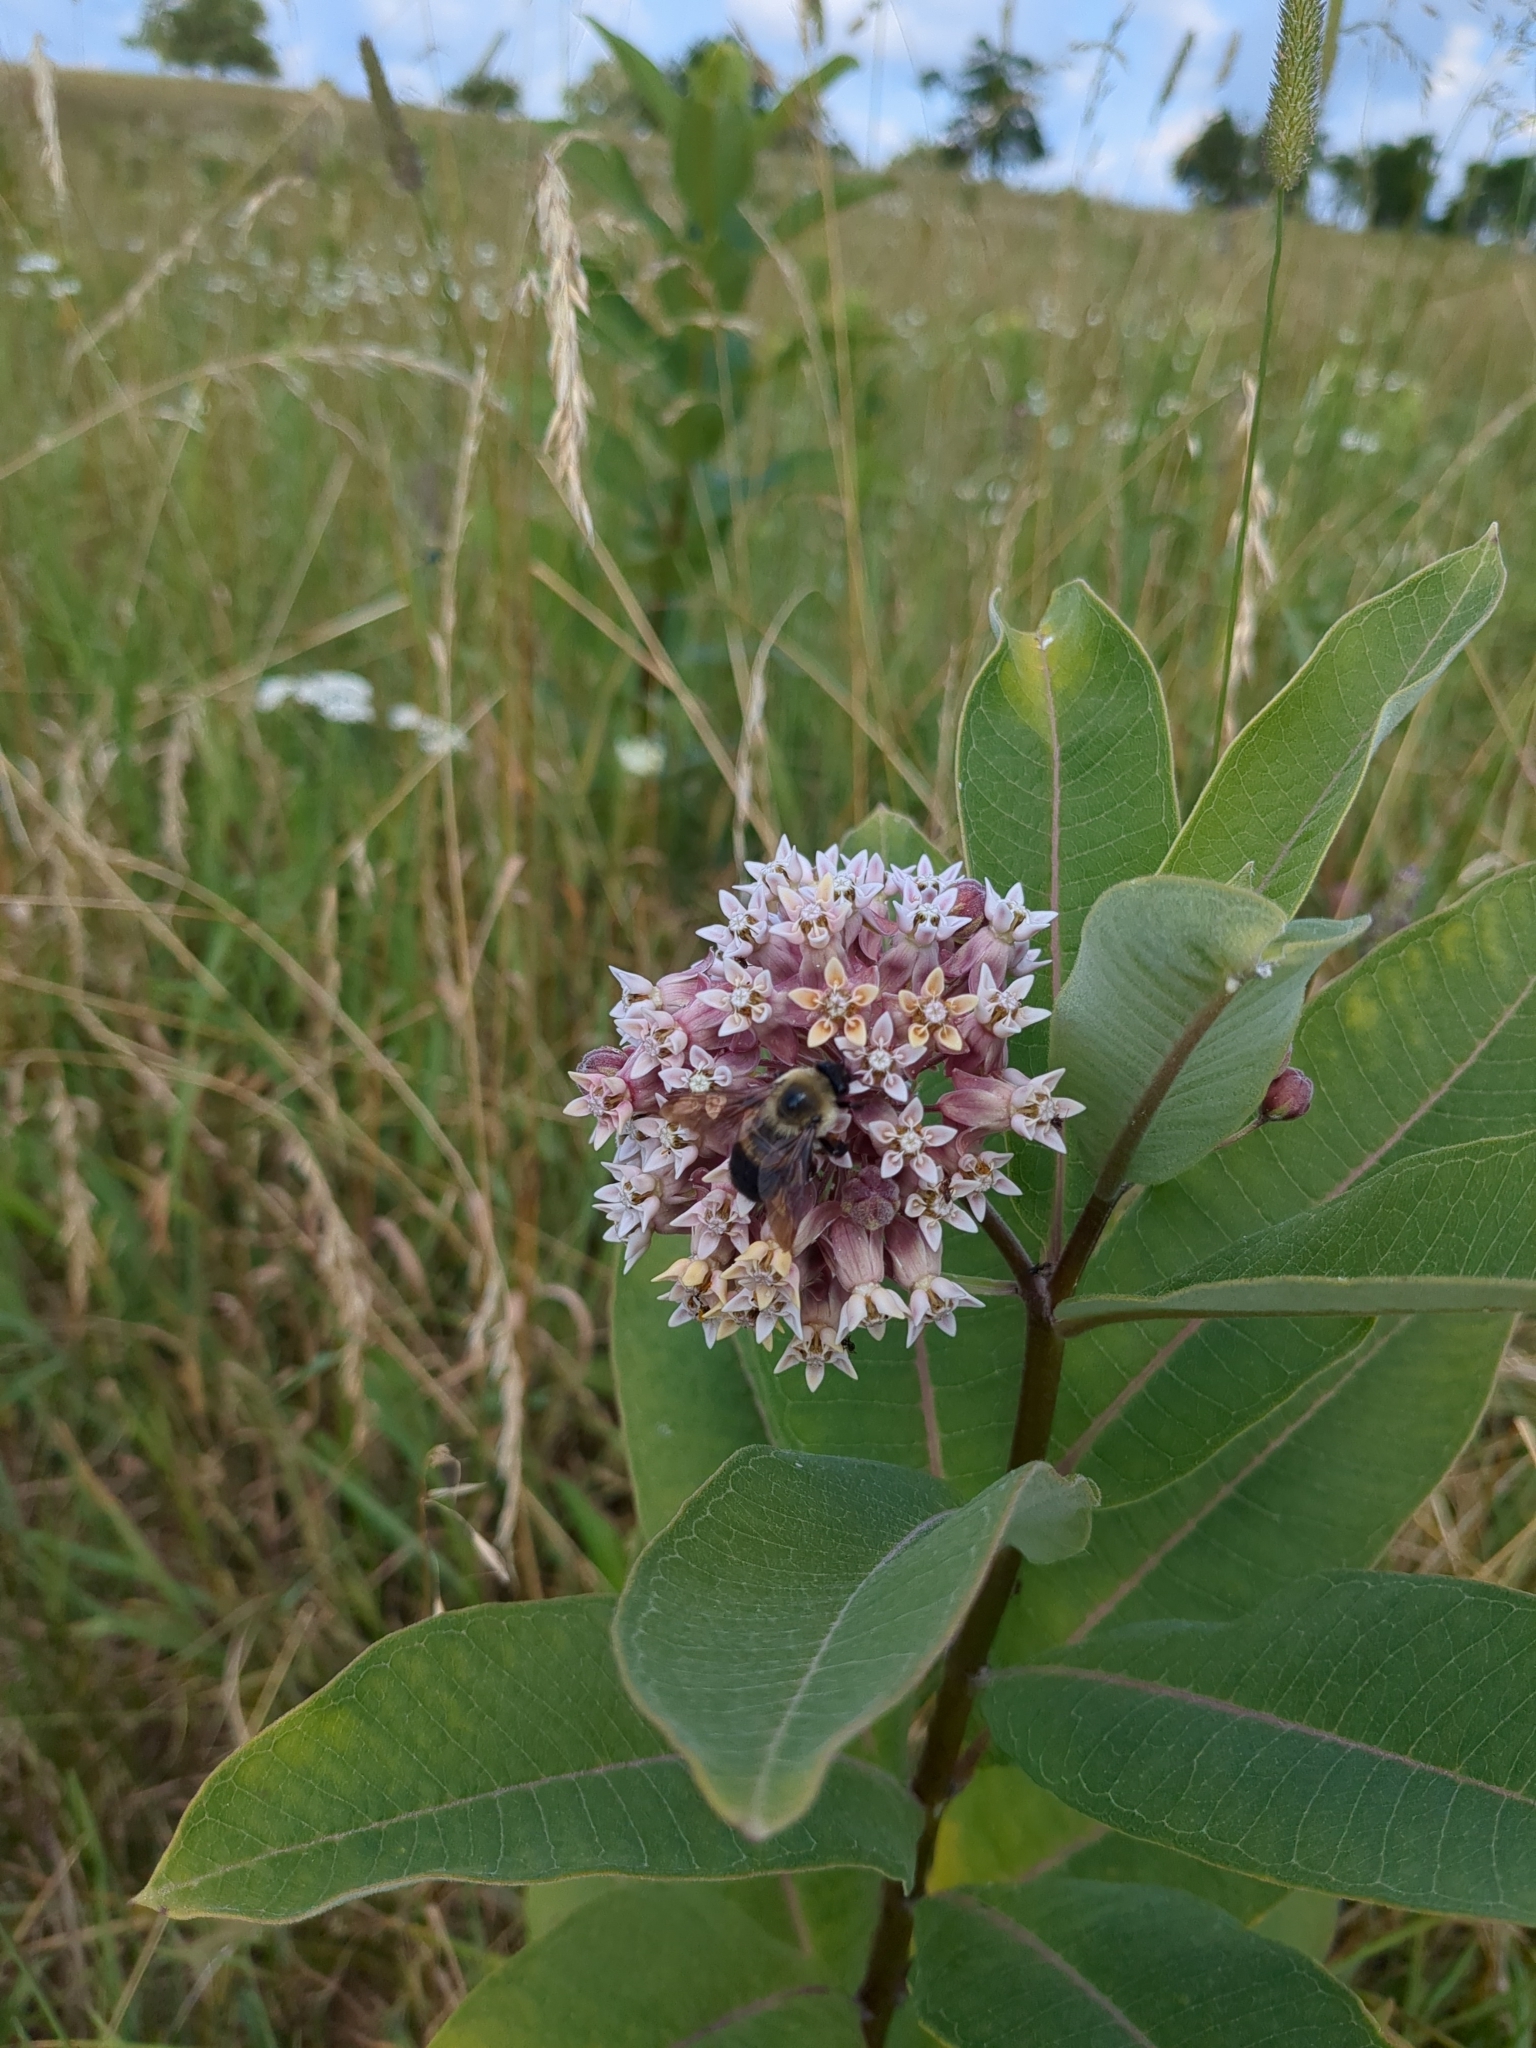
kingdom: Animalia
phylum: Arthropoda
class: Insecta
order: Hymenoptera
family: Apidae
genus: Bombus
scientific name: Bombus griseocollis
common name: Brown-belted bumble bee
